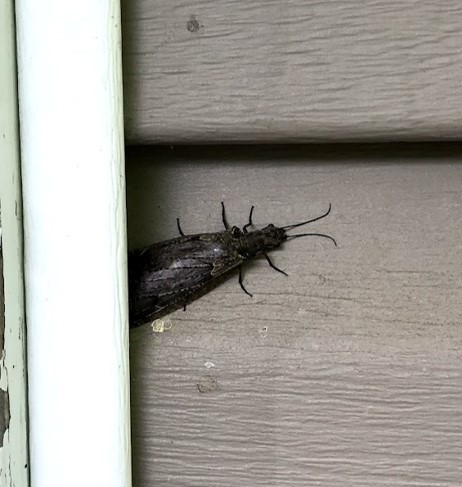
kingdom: Animalia
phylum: Arthropoda
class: Insecta
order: Megaloptera
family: Corydalidae
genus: Chauliodes
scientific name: Chauliodes rastricornis
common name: Spring fishfly
